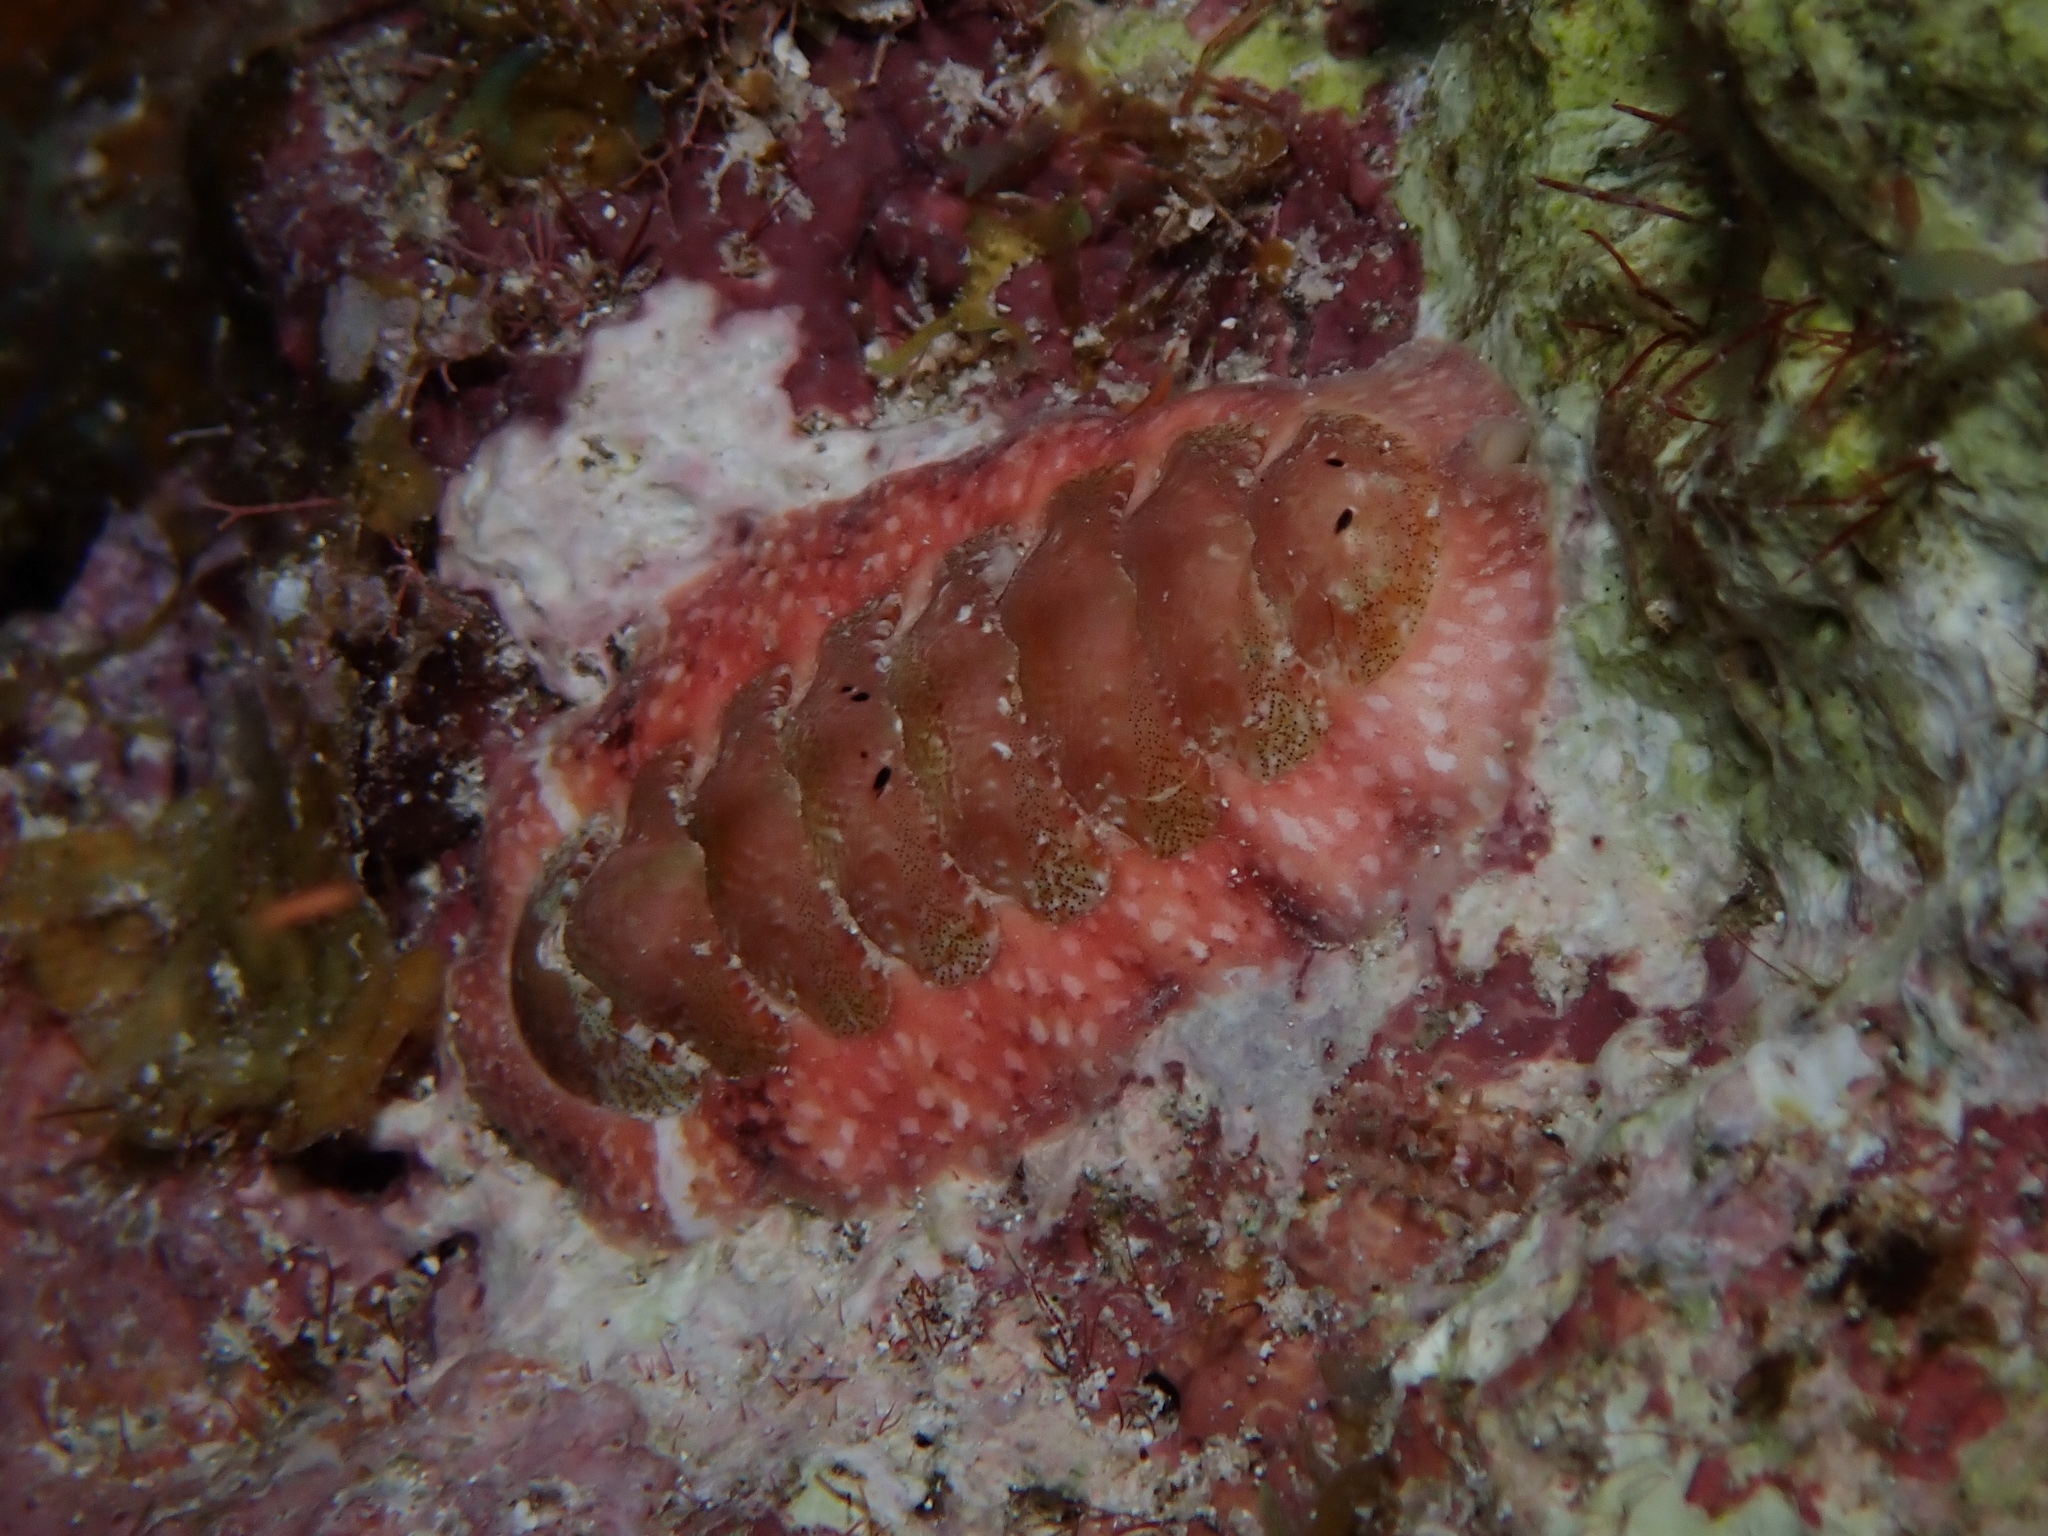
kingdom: Animalia
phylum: Mollusca
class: Polyplacophora
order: Chitonida
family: Chitonidae
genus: Tonicia
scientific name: Tonicia schrammi
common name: Gold-flecked chiton
